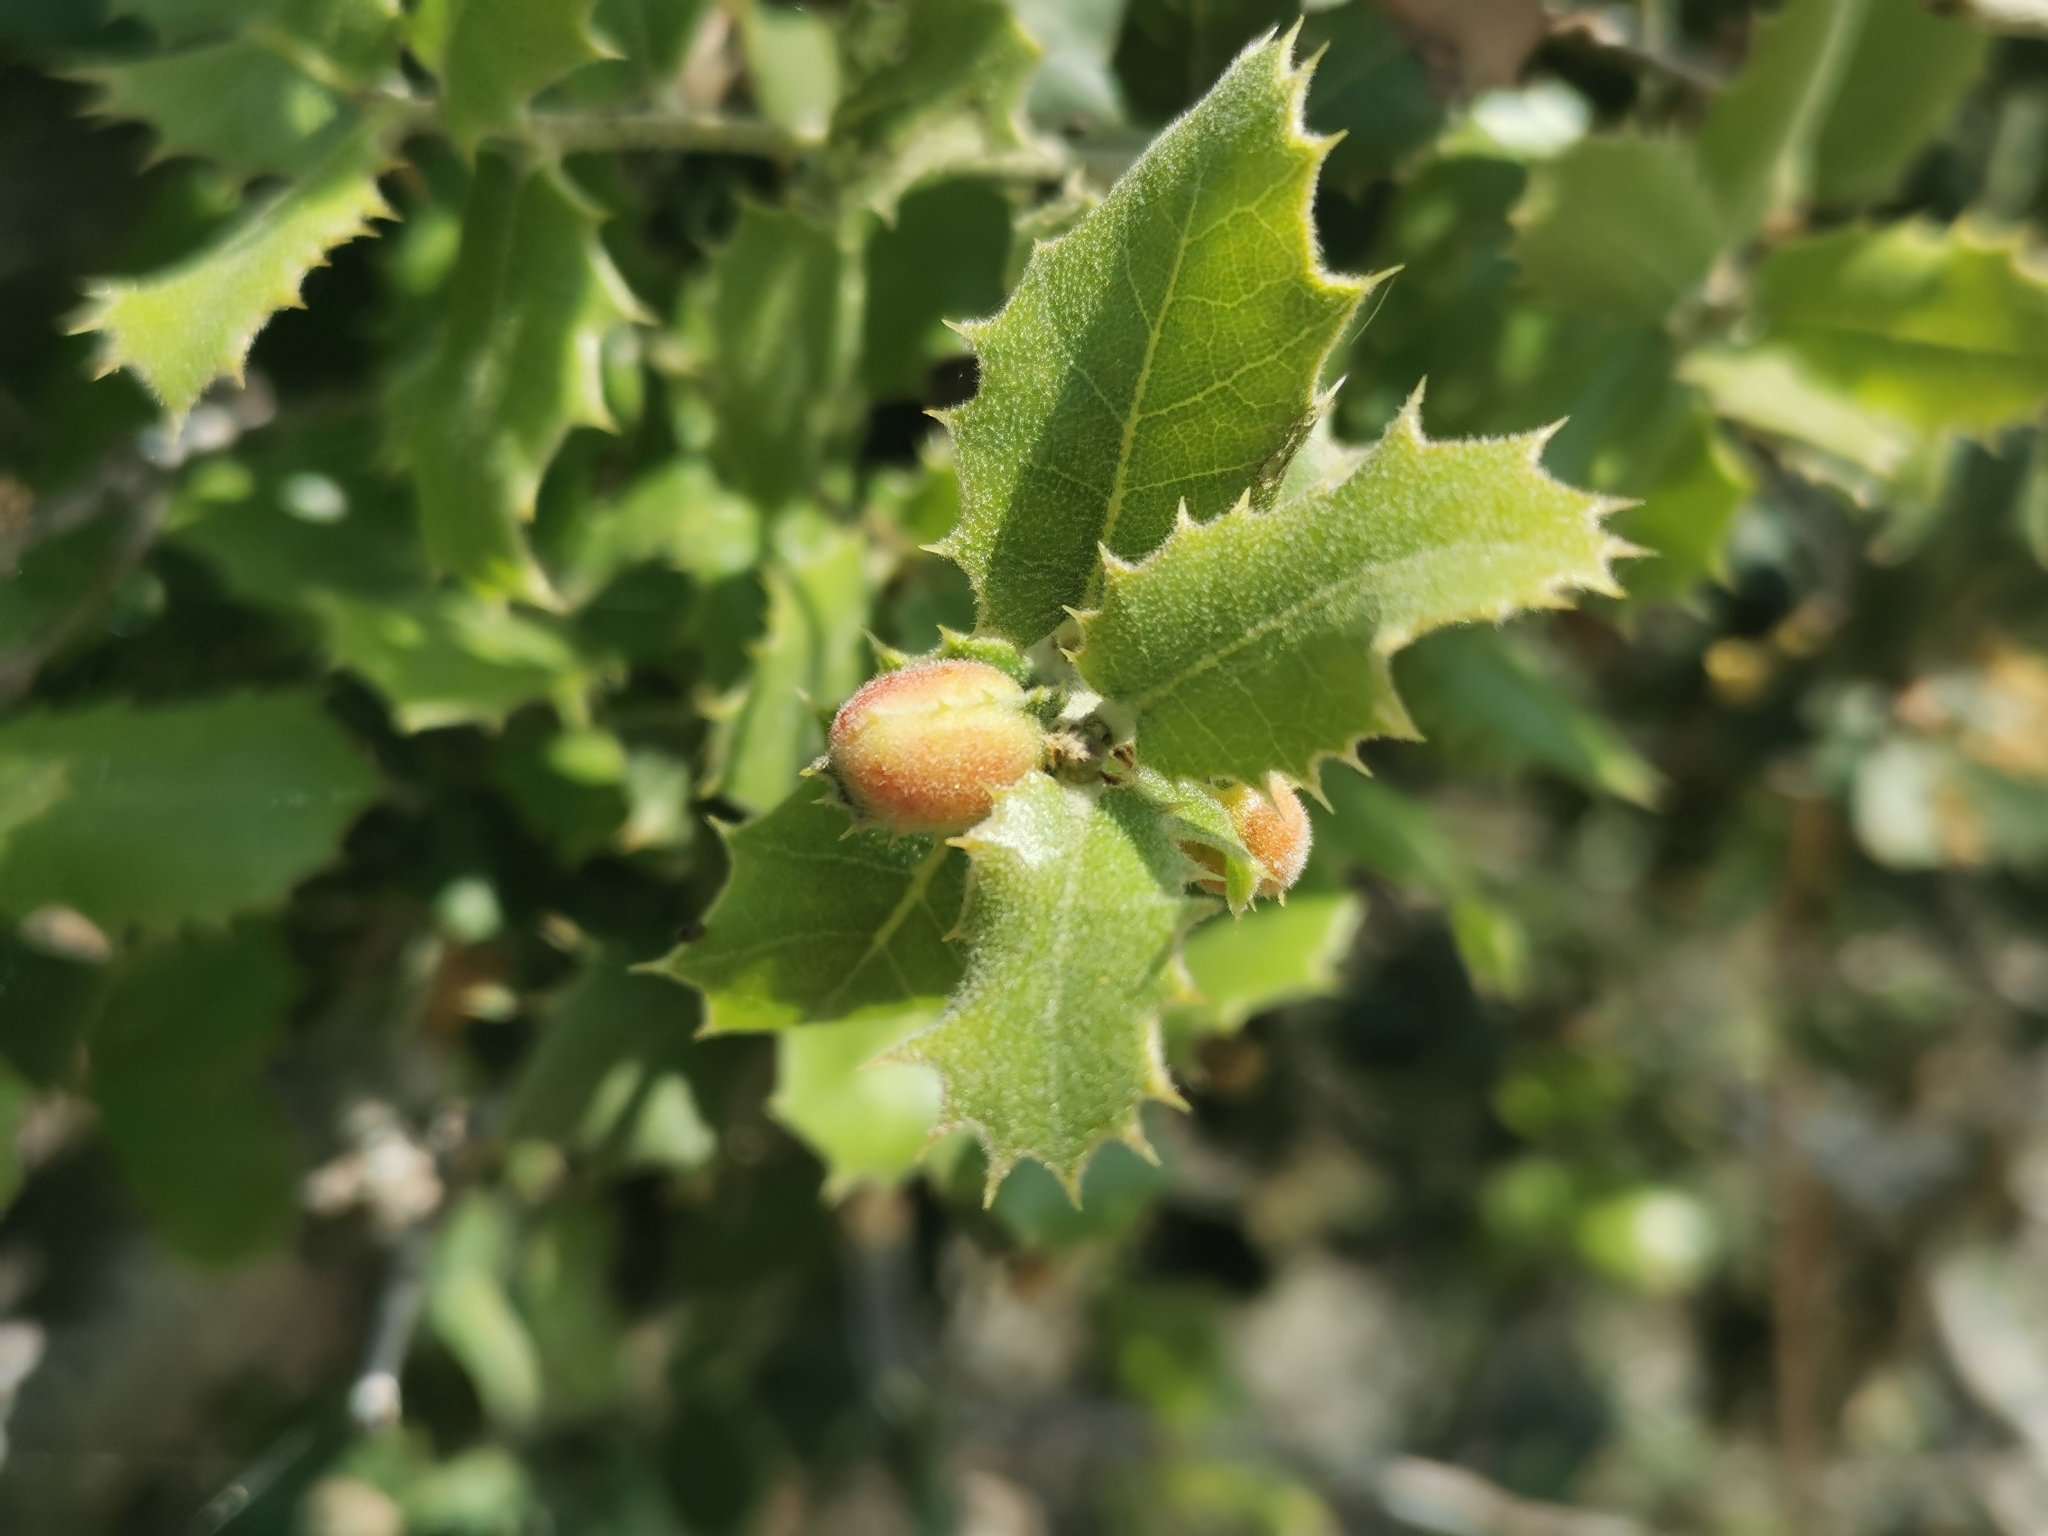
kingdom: Animalia
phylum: Arthropoda
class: Insecta
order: Hymenoptera
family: Cynipidae
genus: Plagiotrochus
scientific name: Plagiotrochus quercusilicis
